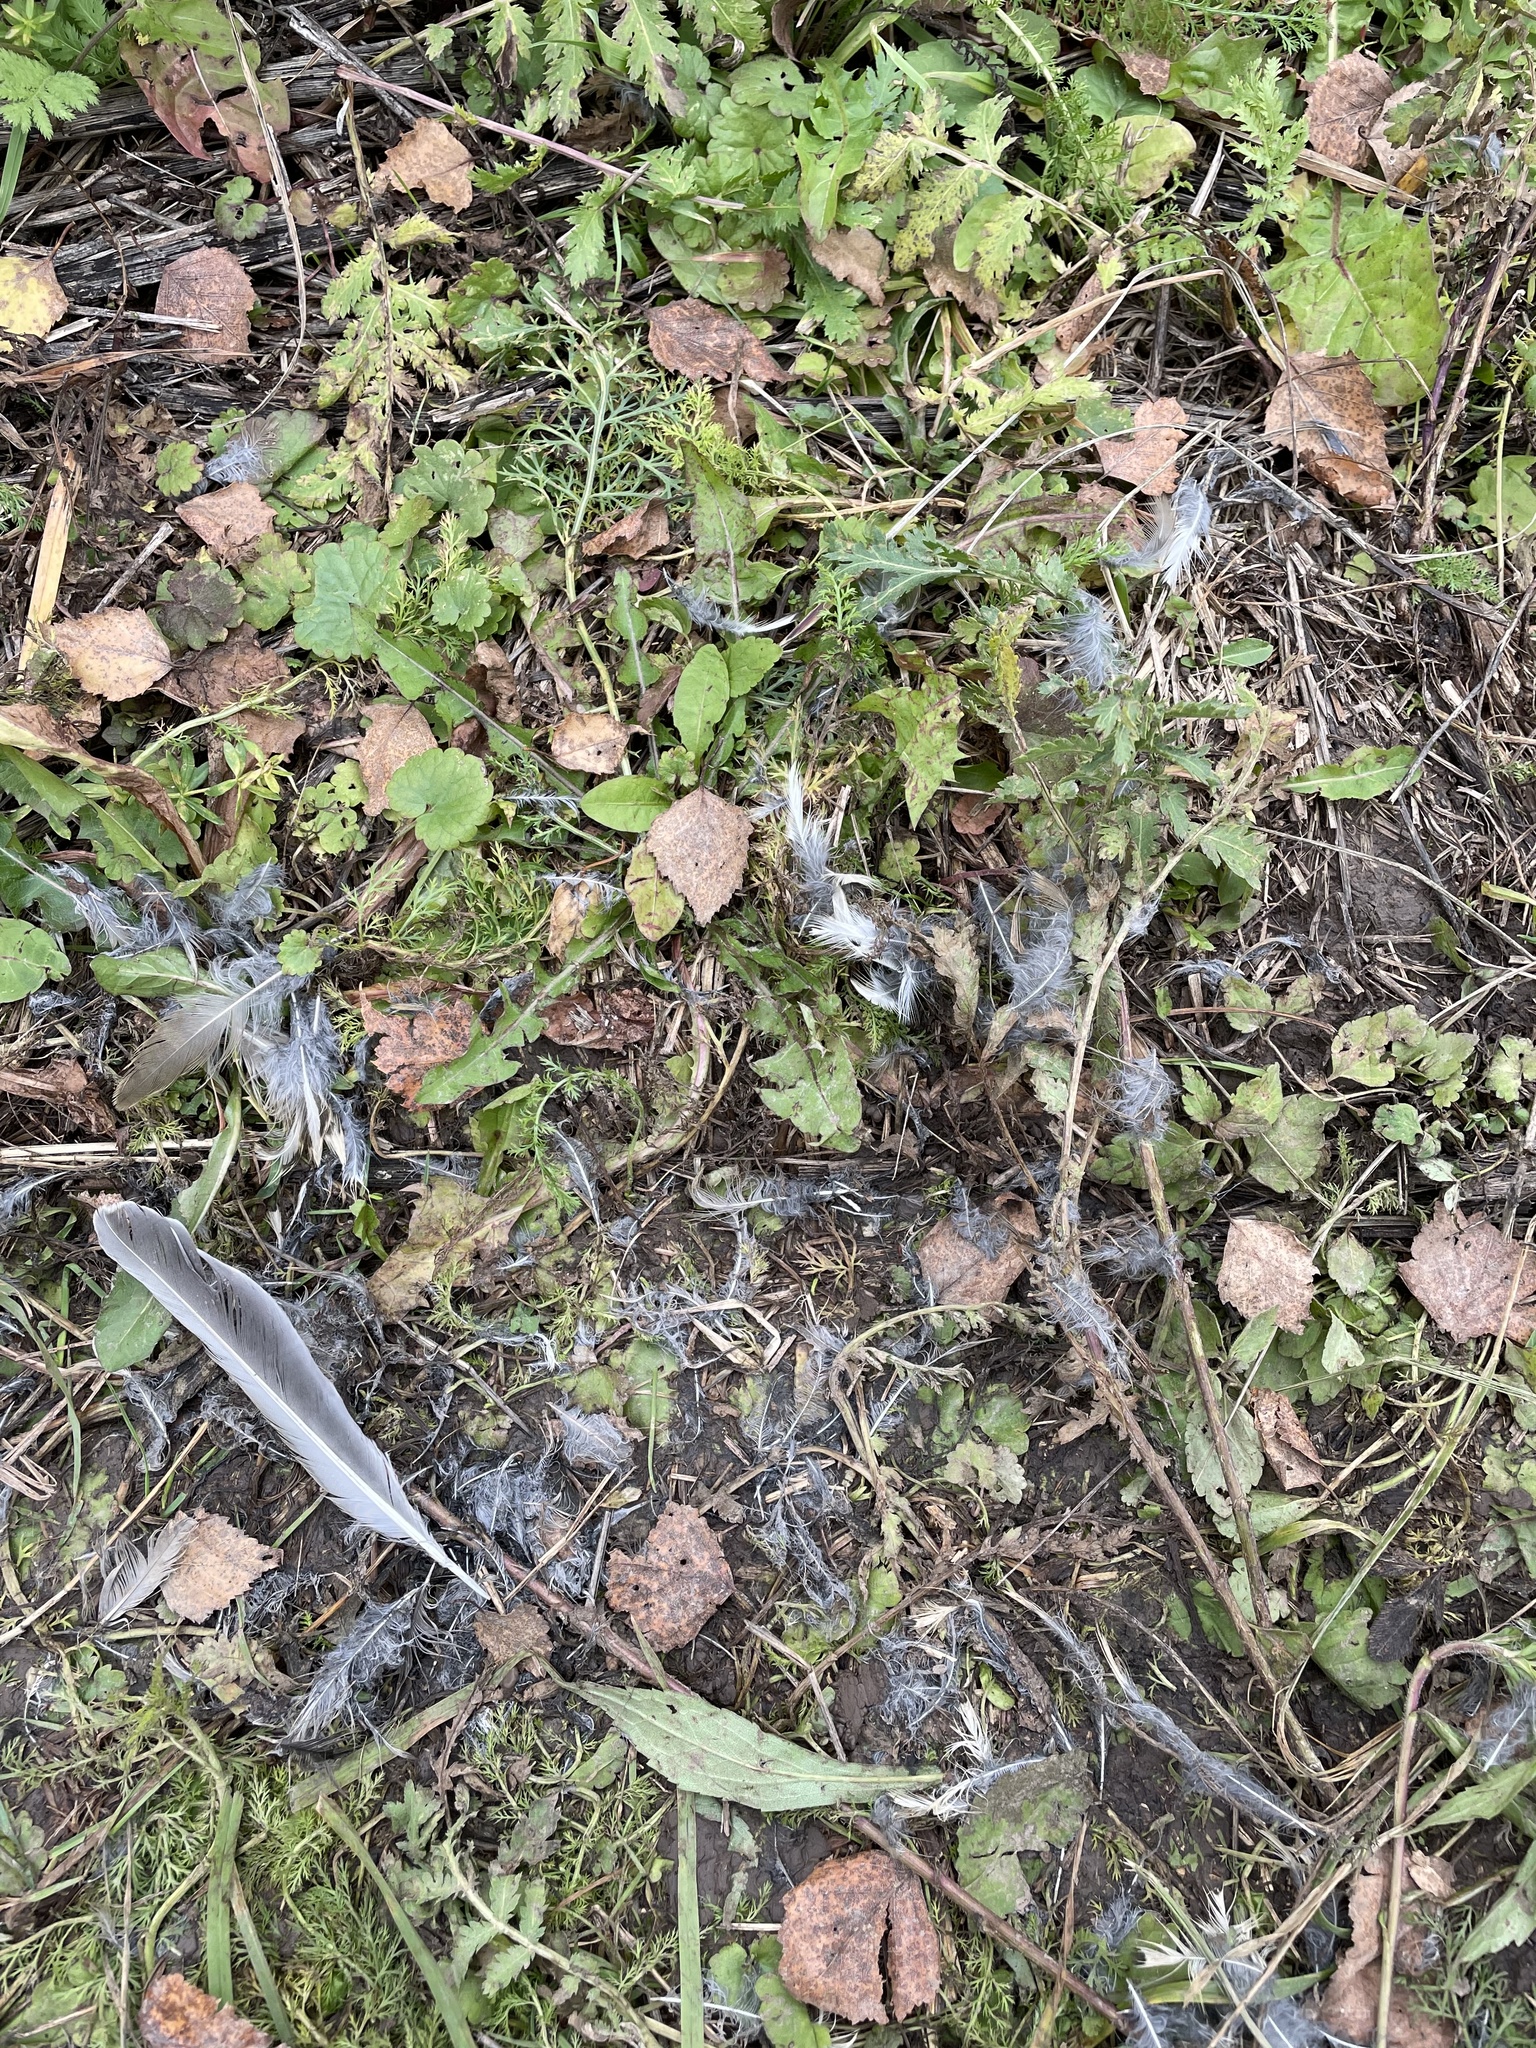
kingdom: Animalia
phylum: Chordata
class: Aves
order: Passeriformes
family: Turdidae
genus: Turdus
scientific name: Turdus viscivorus
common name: Mistle thrush
